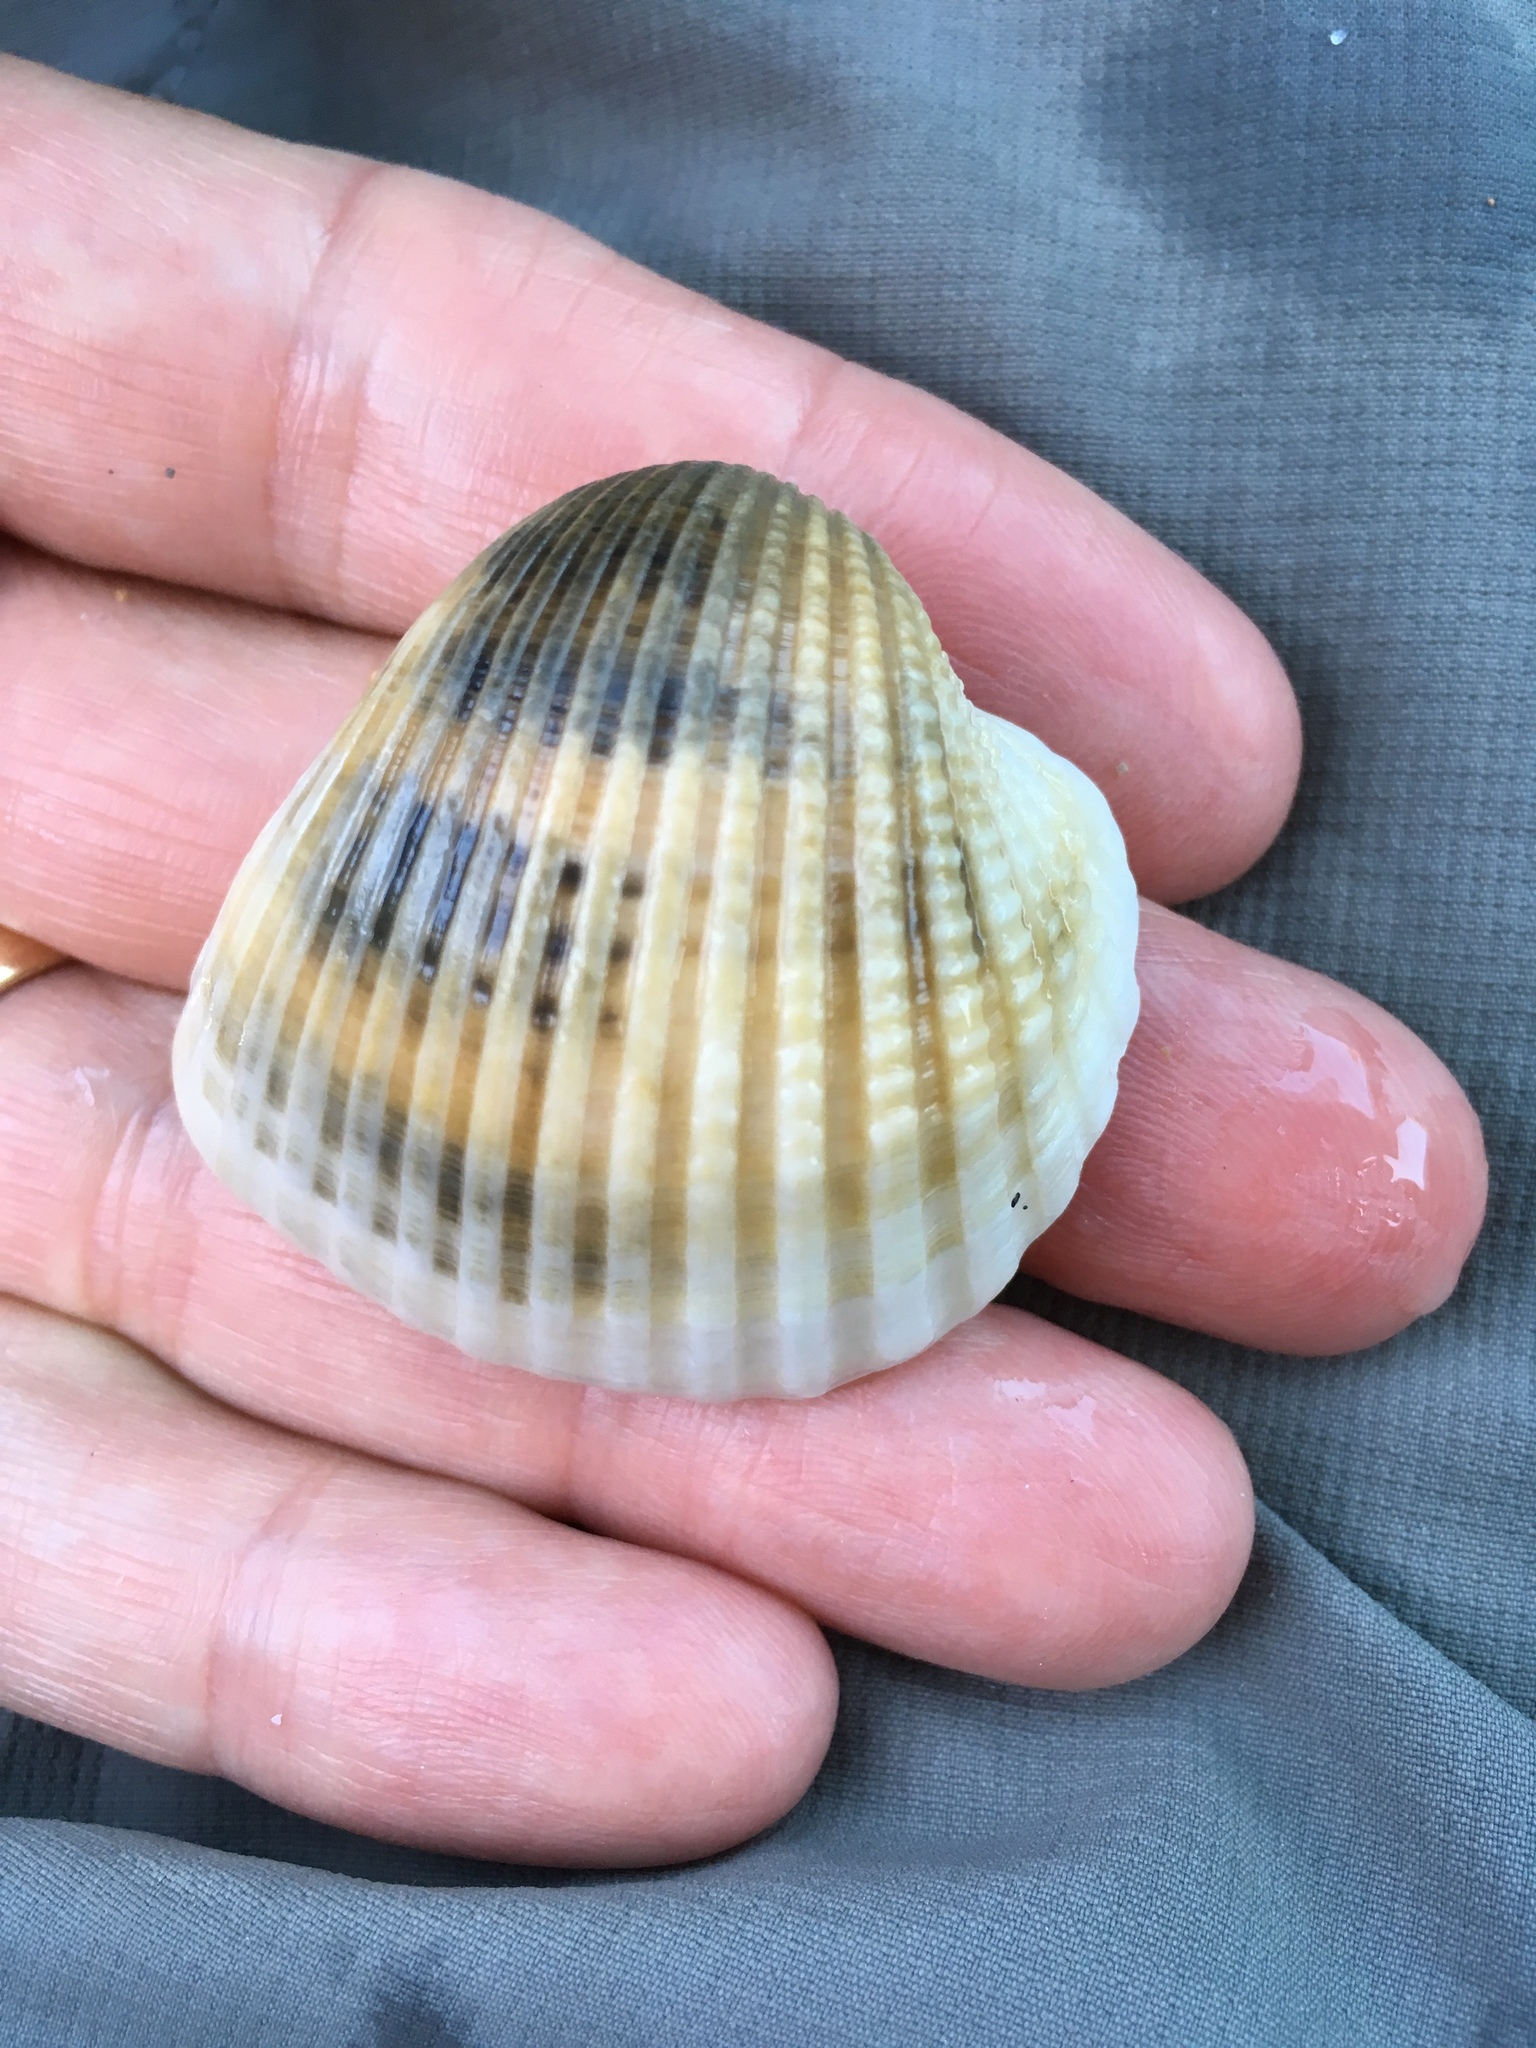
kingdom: Animalia
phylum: Mollusca
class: Bivalvia
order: Arcida
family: Arcidae
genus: Anadara
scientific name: Anadara brasiliana
